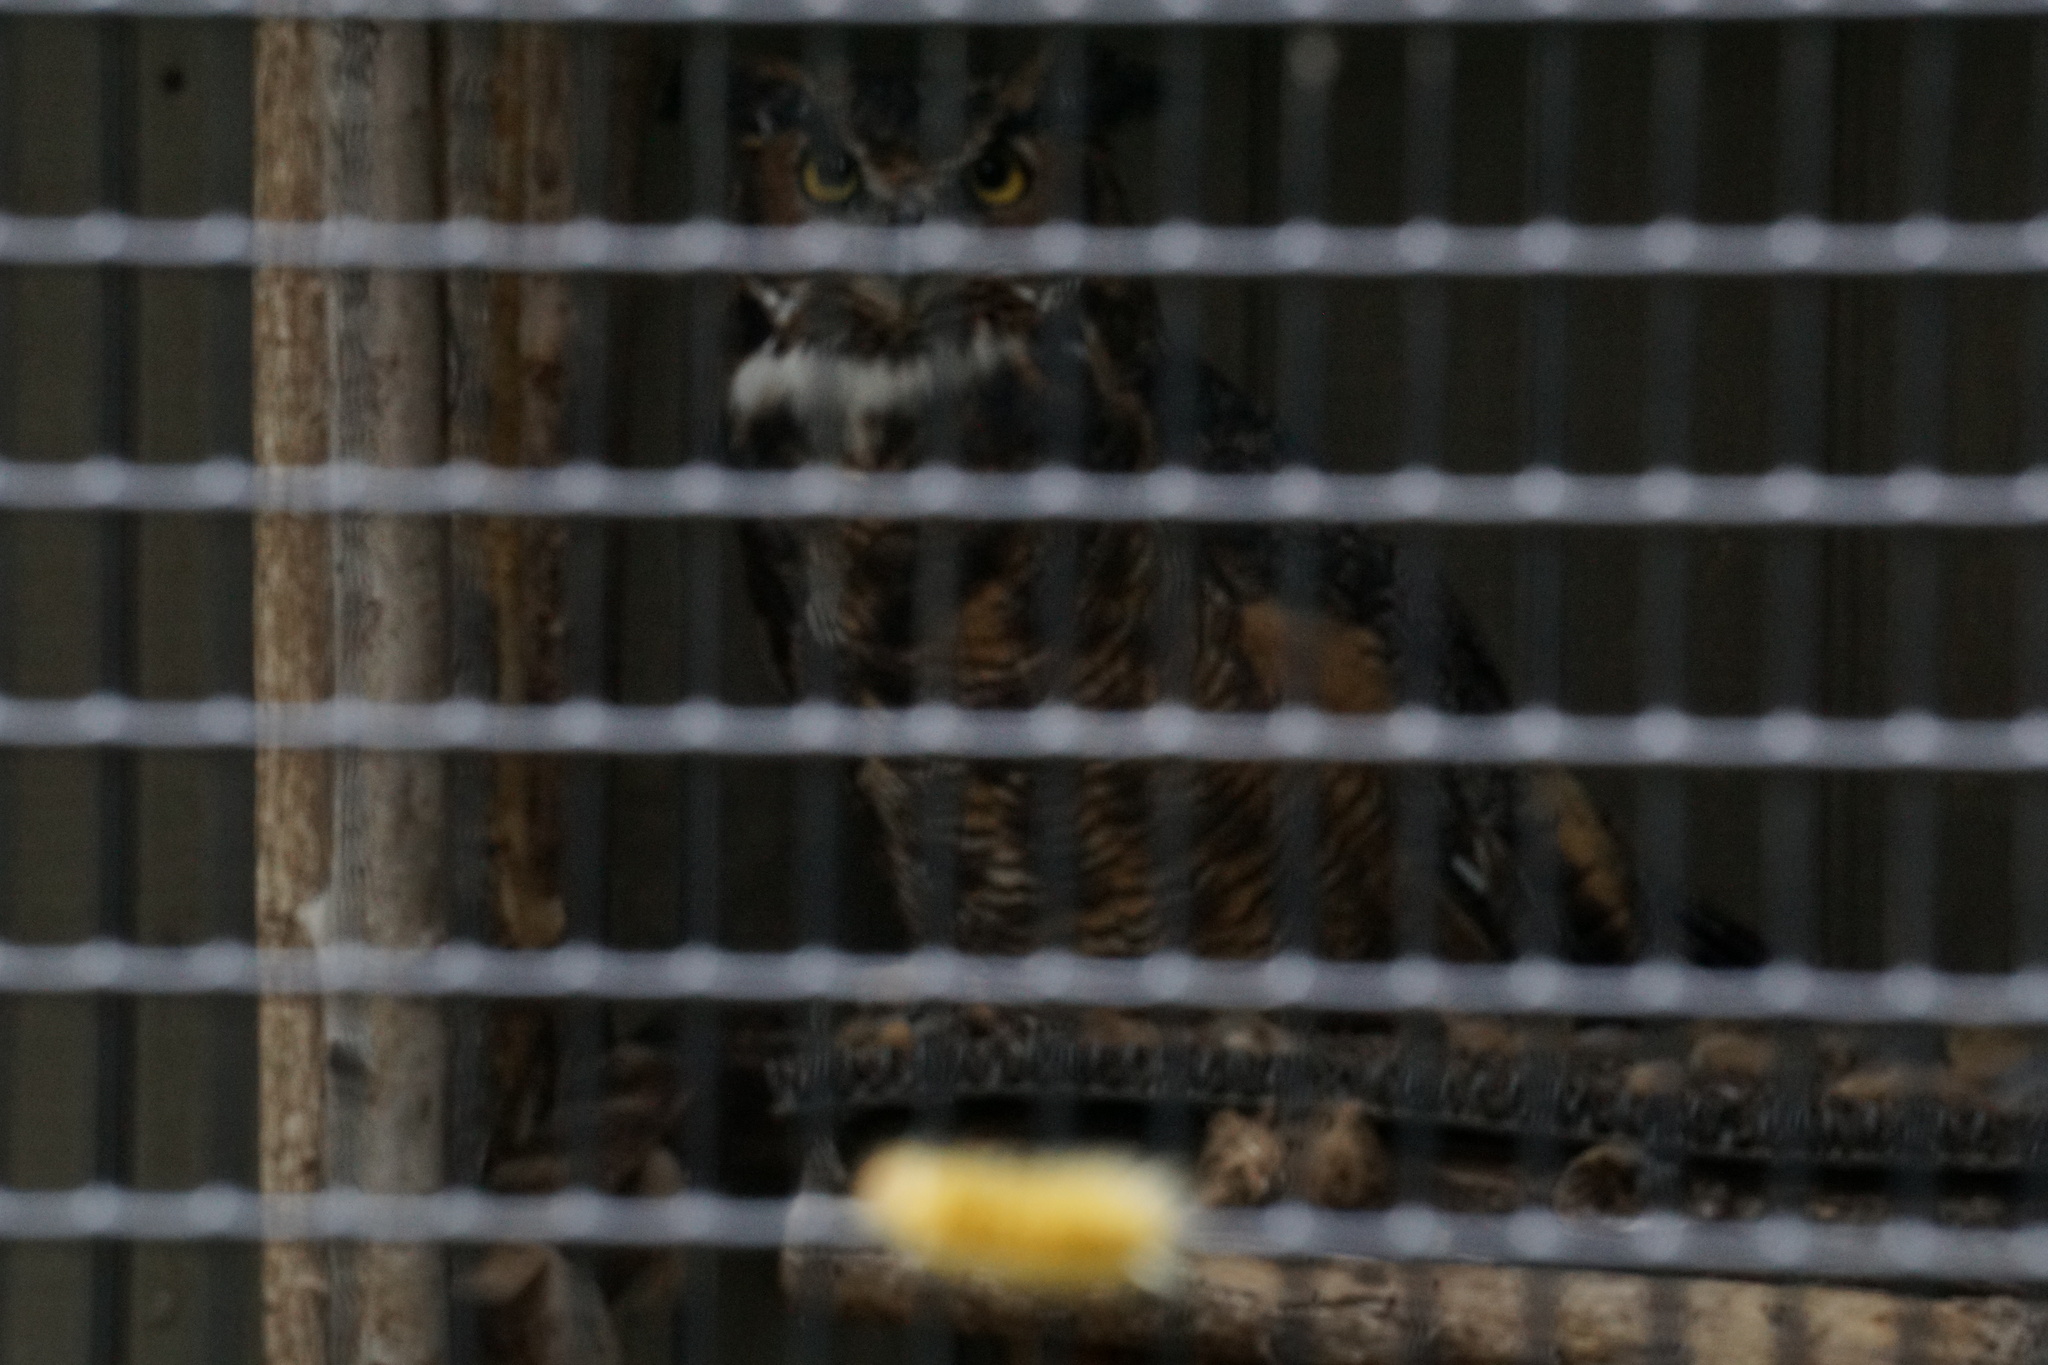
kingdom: Animalia
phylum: Arthropoda
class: Insecta
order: Lepidoptera
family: Erebidae
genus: Halysidota
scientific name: Halysidota harrisii
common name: Sycamore tussock moth
